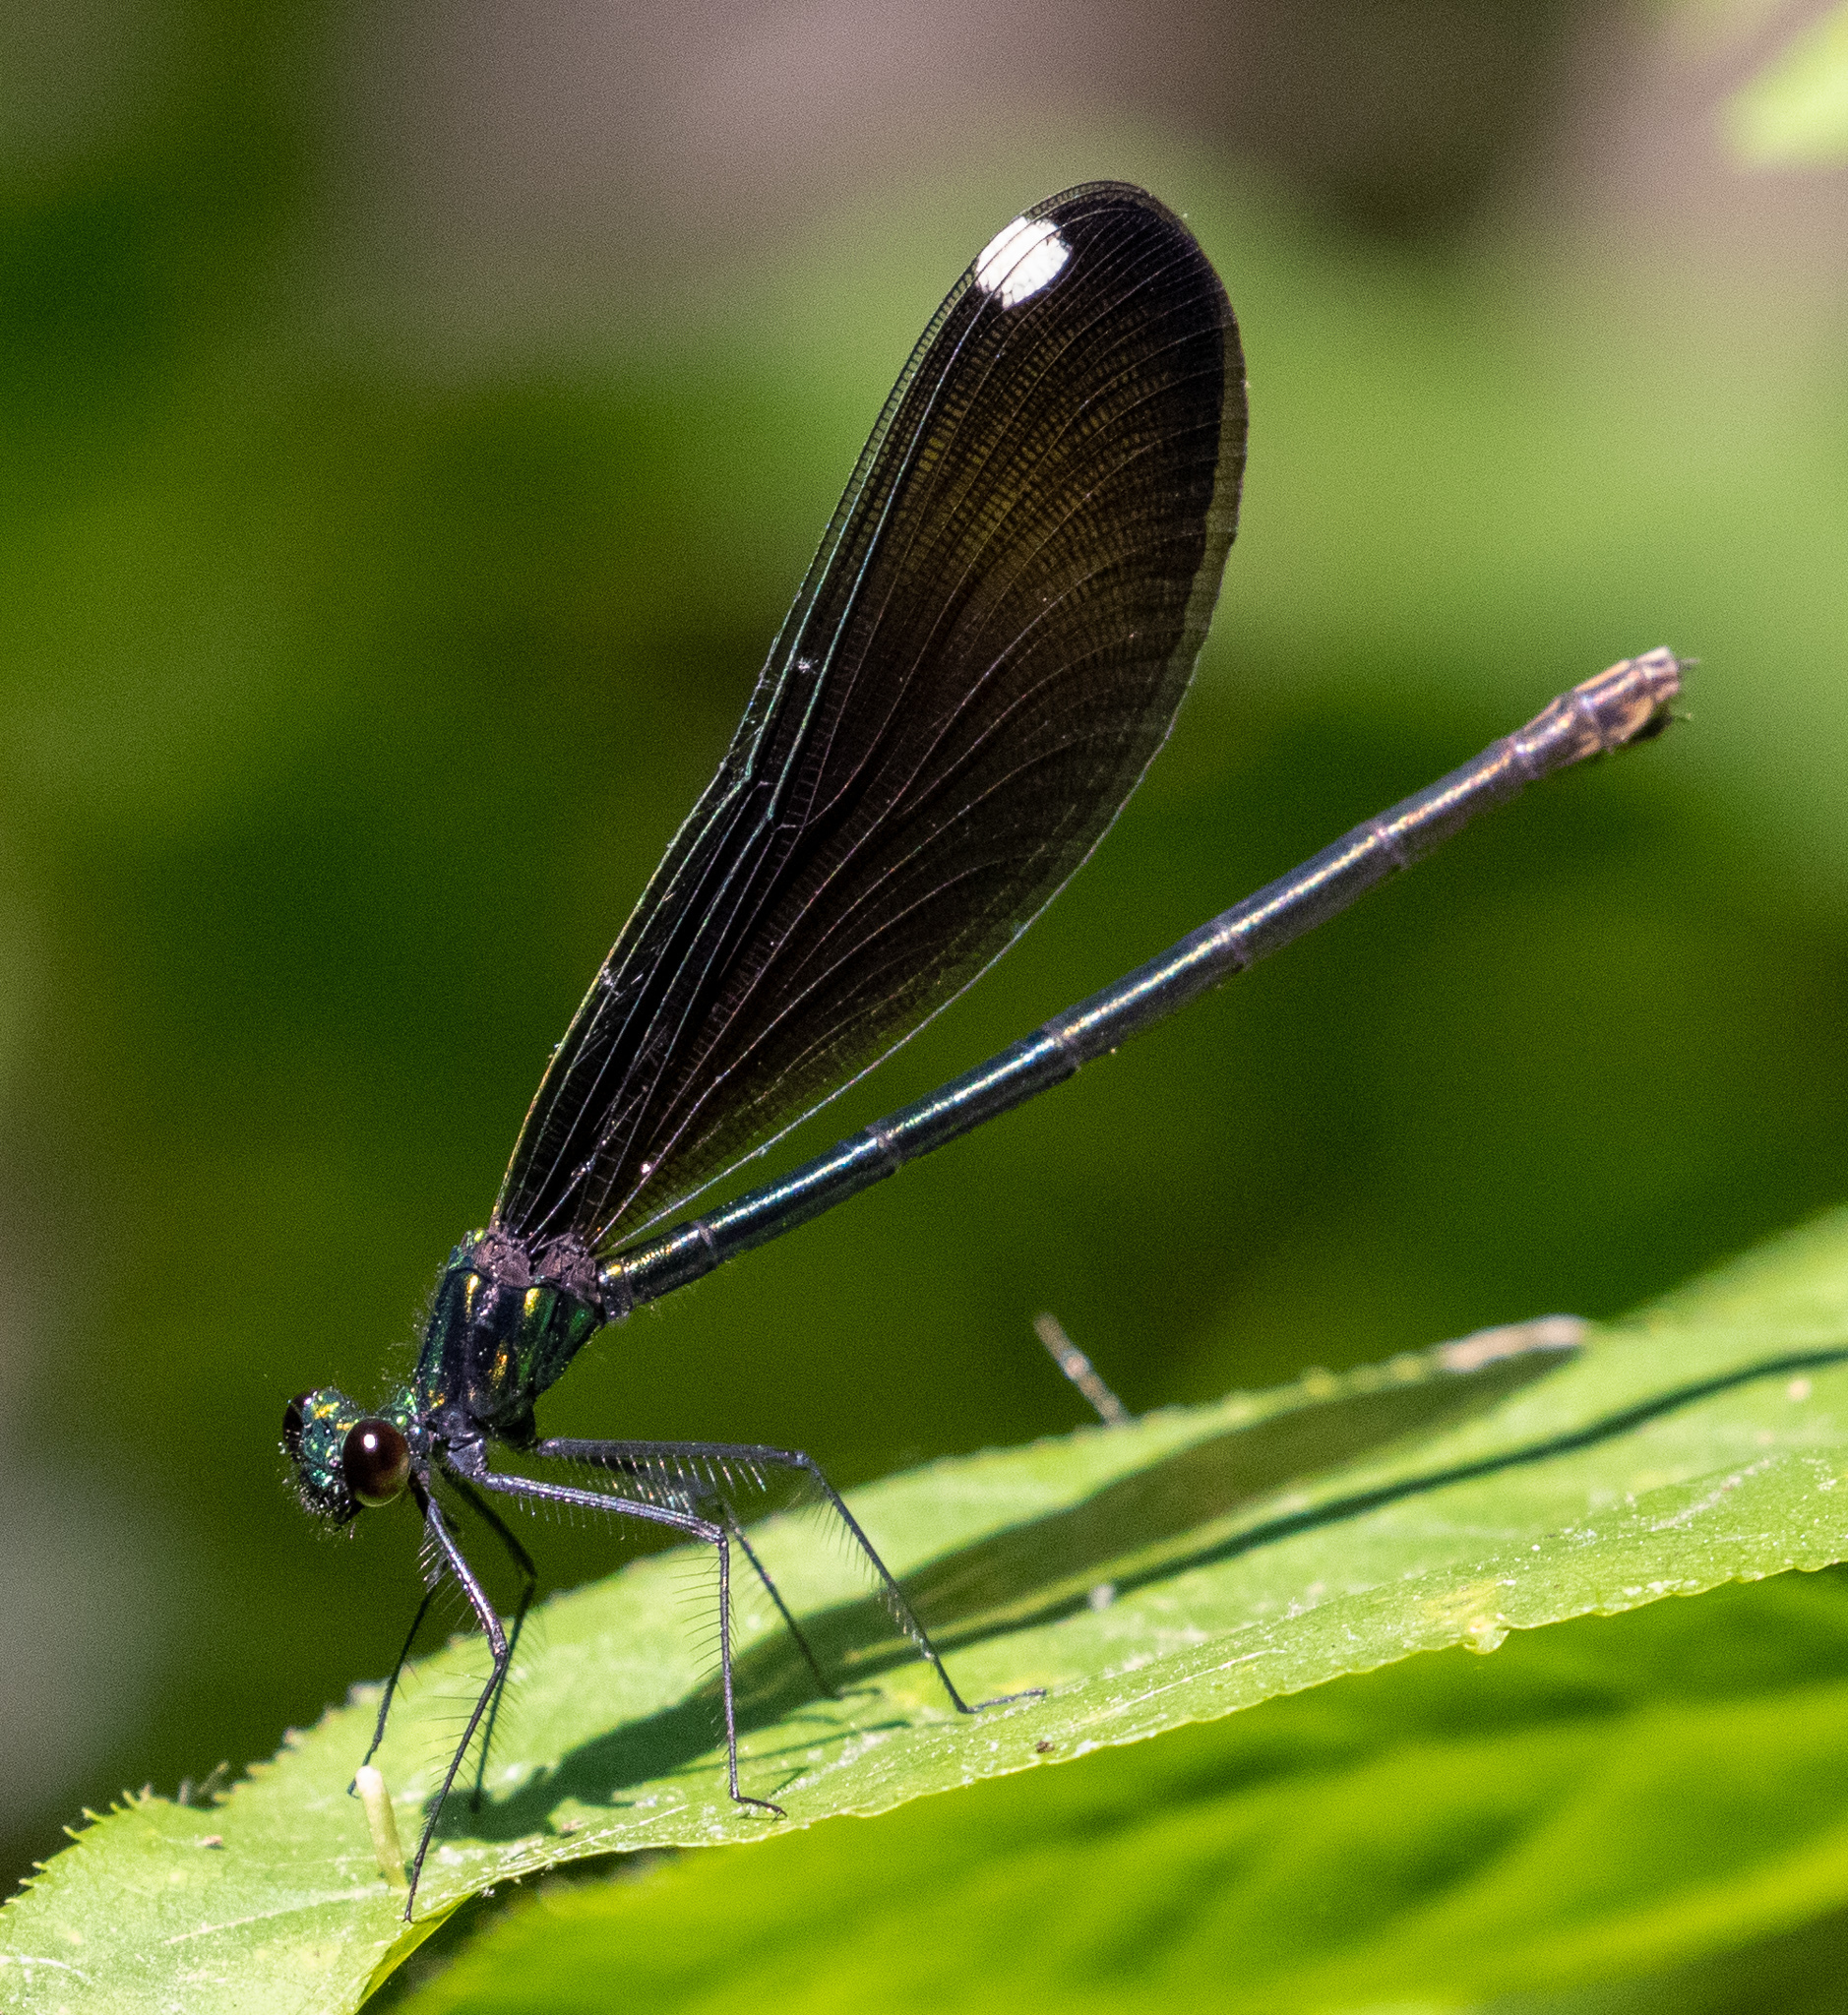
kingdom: Animalia
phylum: Arthropoda
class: Insecta
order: Odonata
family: Calopterygidae
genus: Calopteryx
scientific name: Calopteryx maculata
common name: Ebony jewelwing
